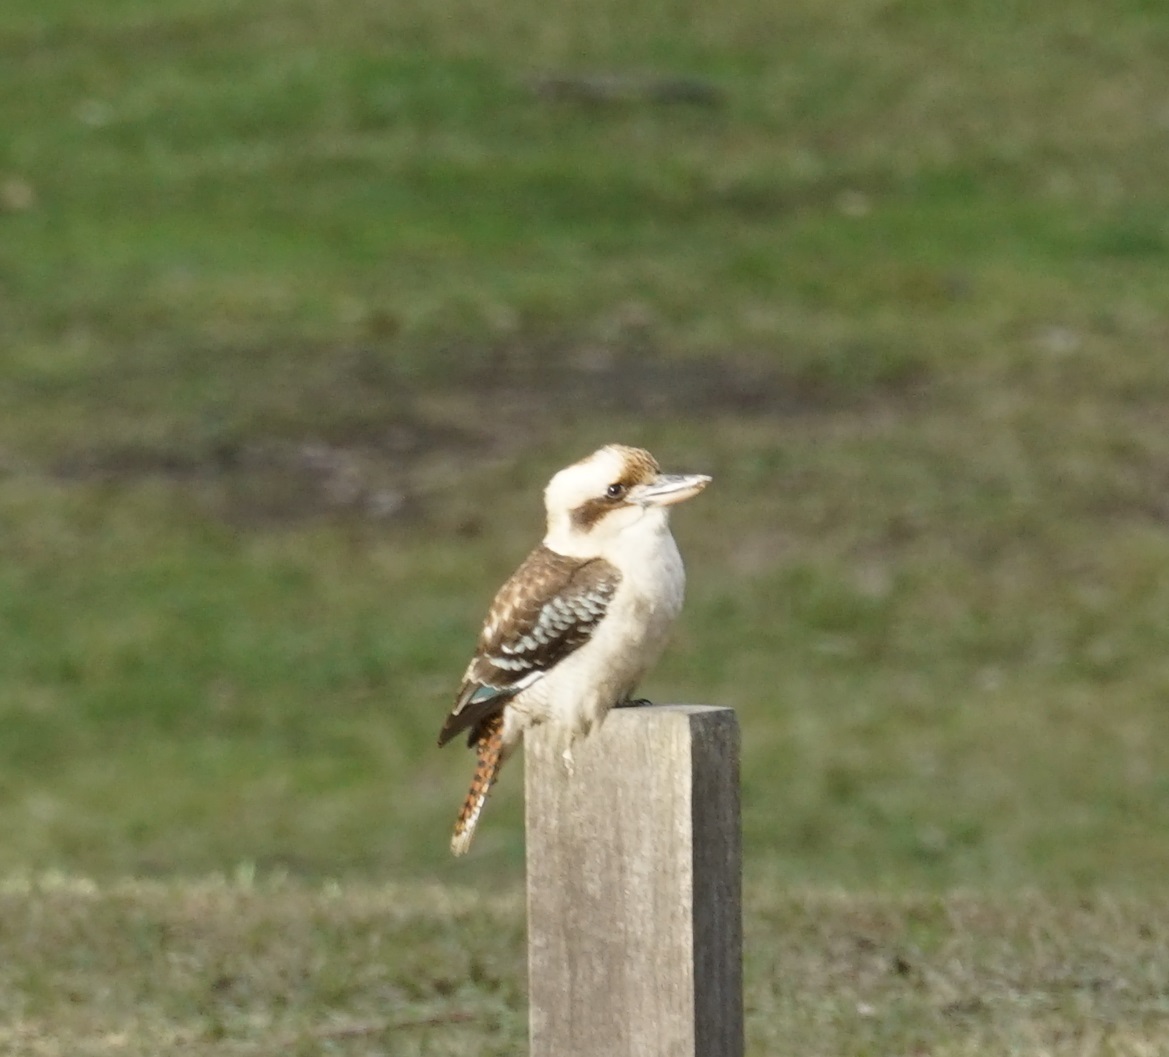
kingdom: Animalia
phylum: Chordata
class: Aves
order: Coraciiformes
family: Alcedinidae
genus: Dacelo
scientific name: Dacelo novaeguineae
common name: Laughing kookaburra
